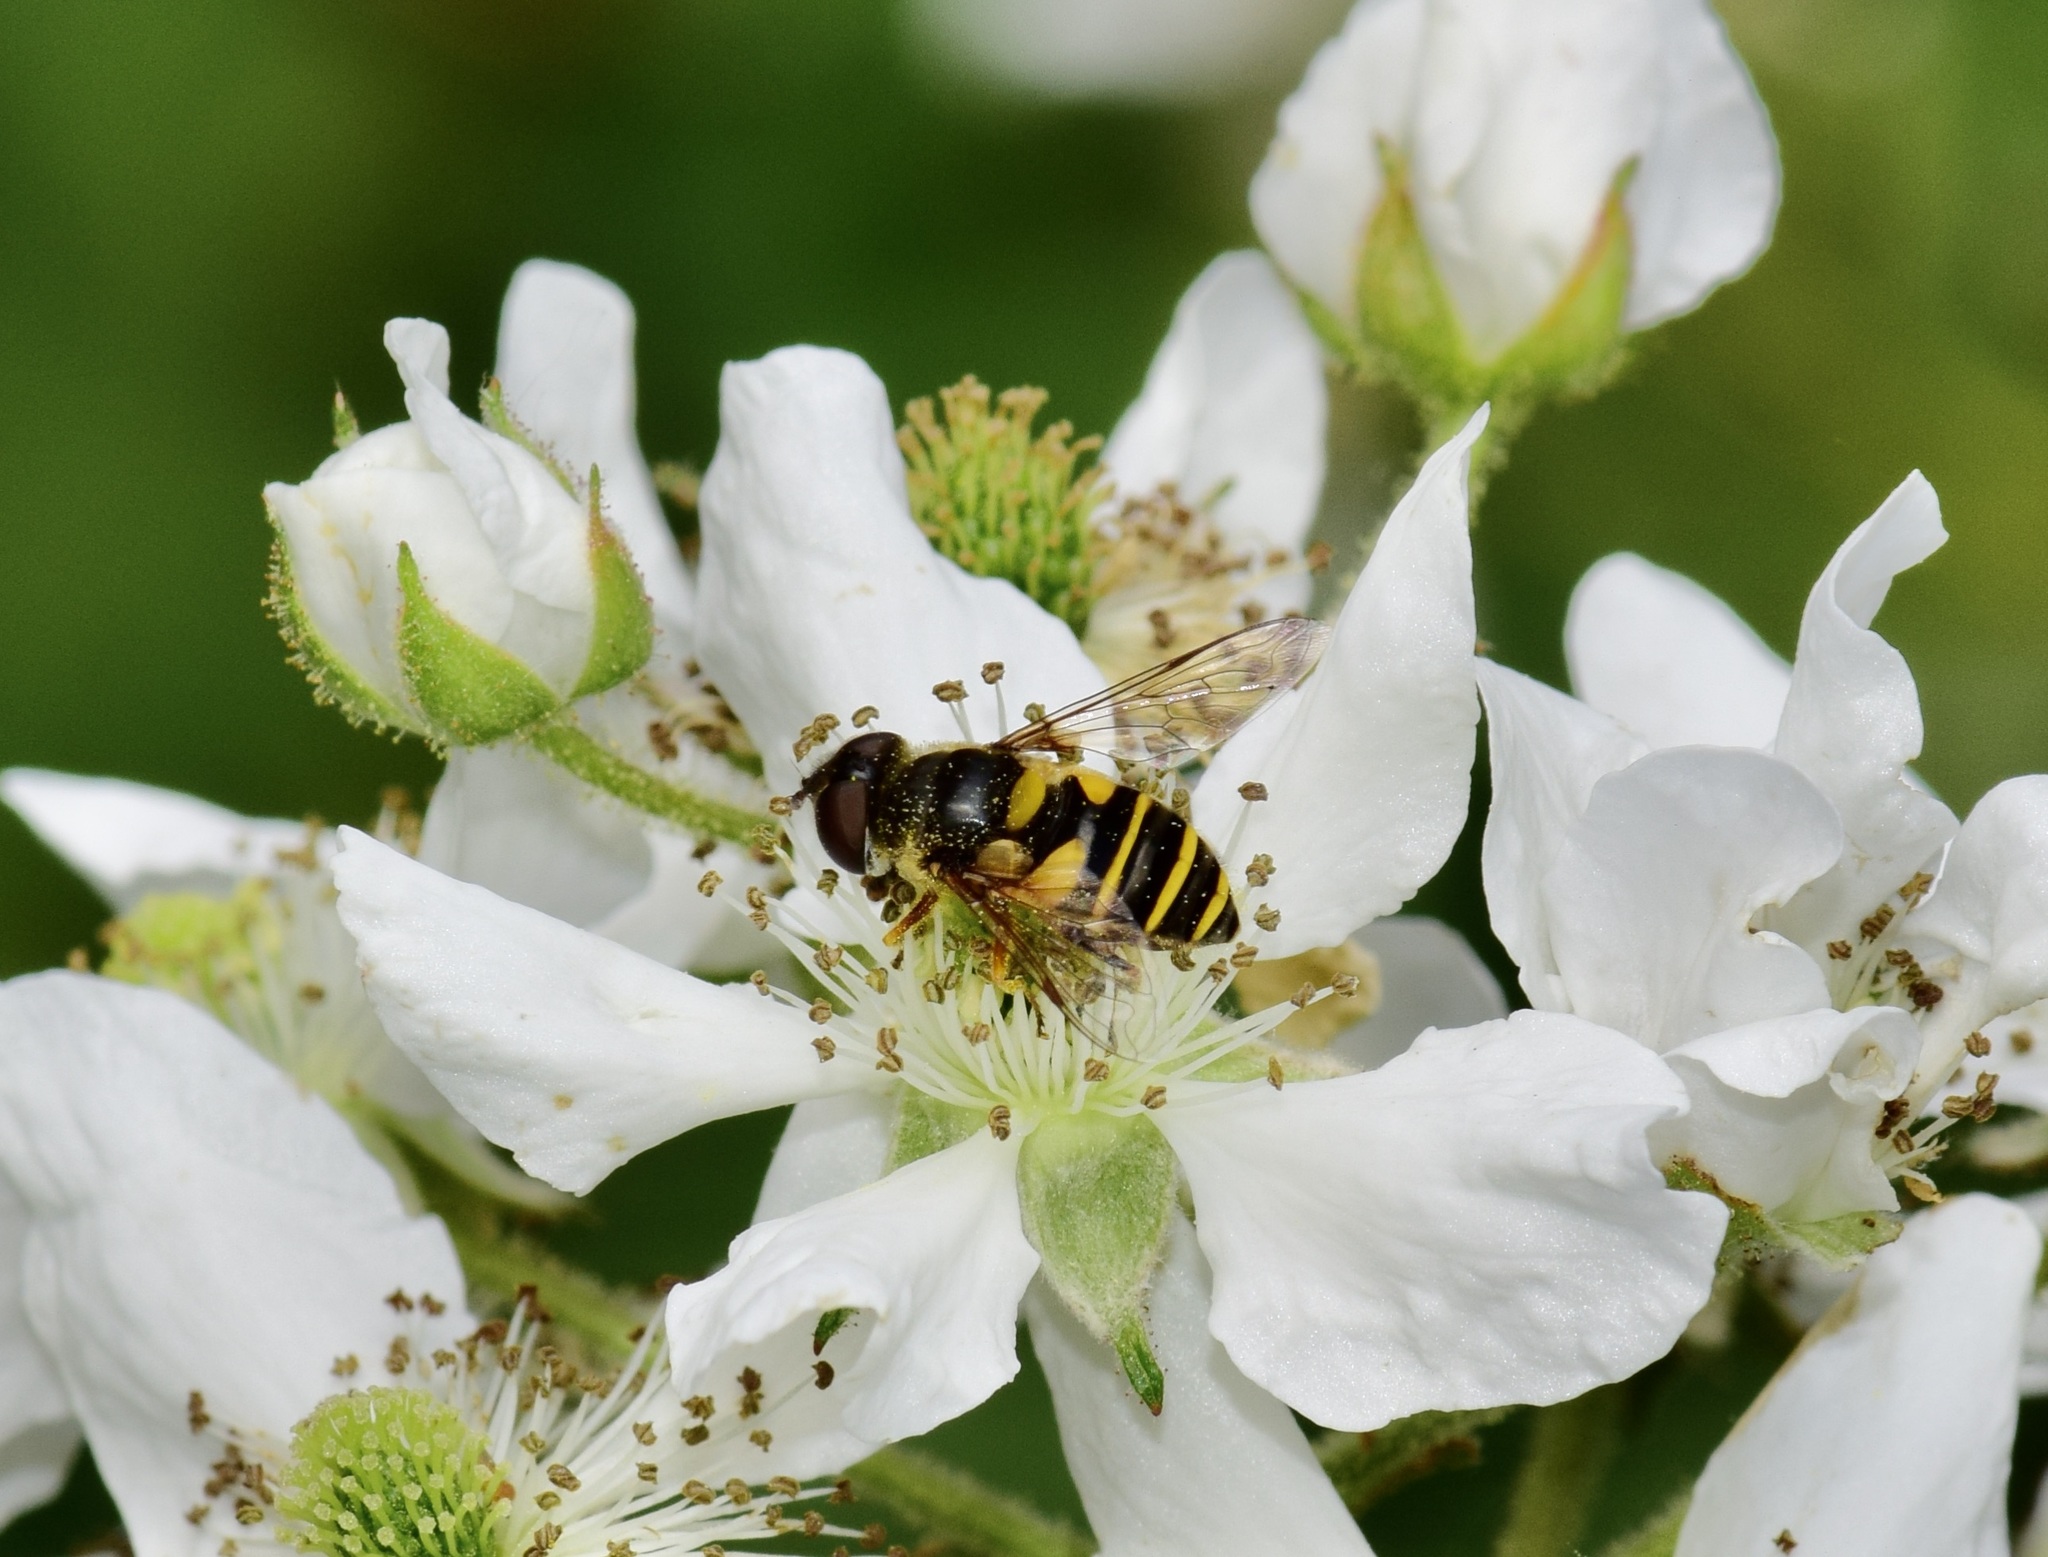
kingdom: Animalia
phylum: Arthropoda
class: Insecta
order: Diptera
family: Syrphidae
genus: Eristalis
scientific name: Eristalis transversa
